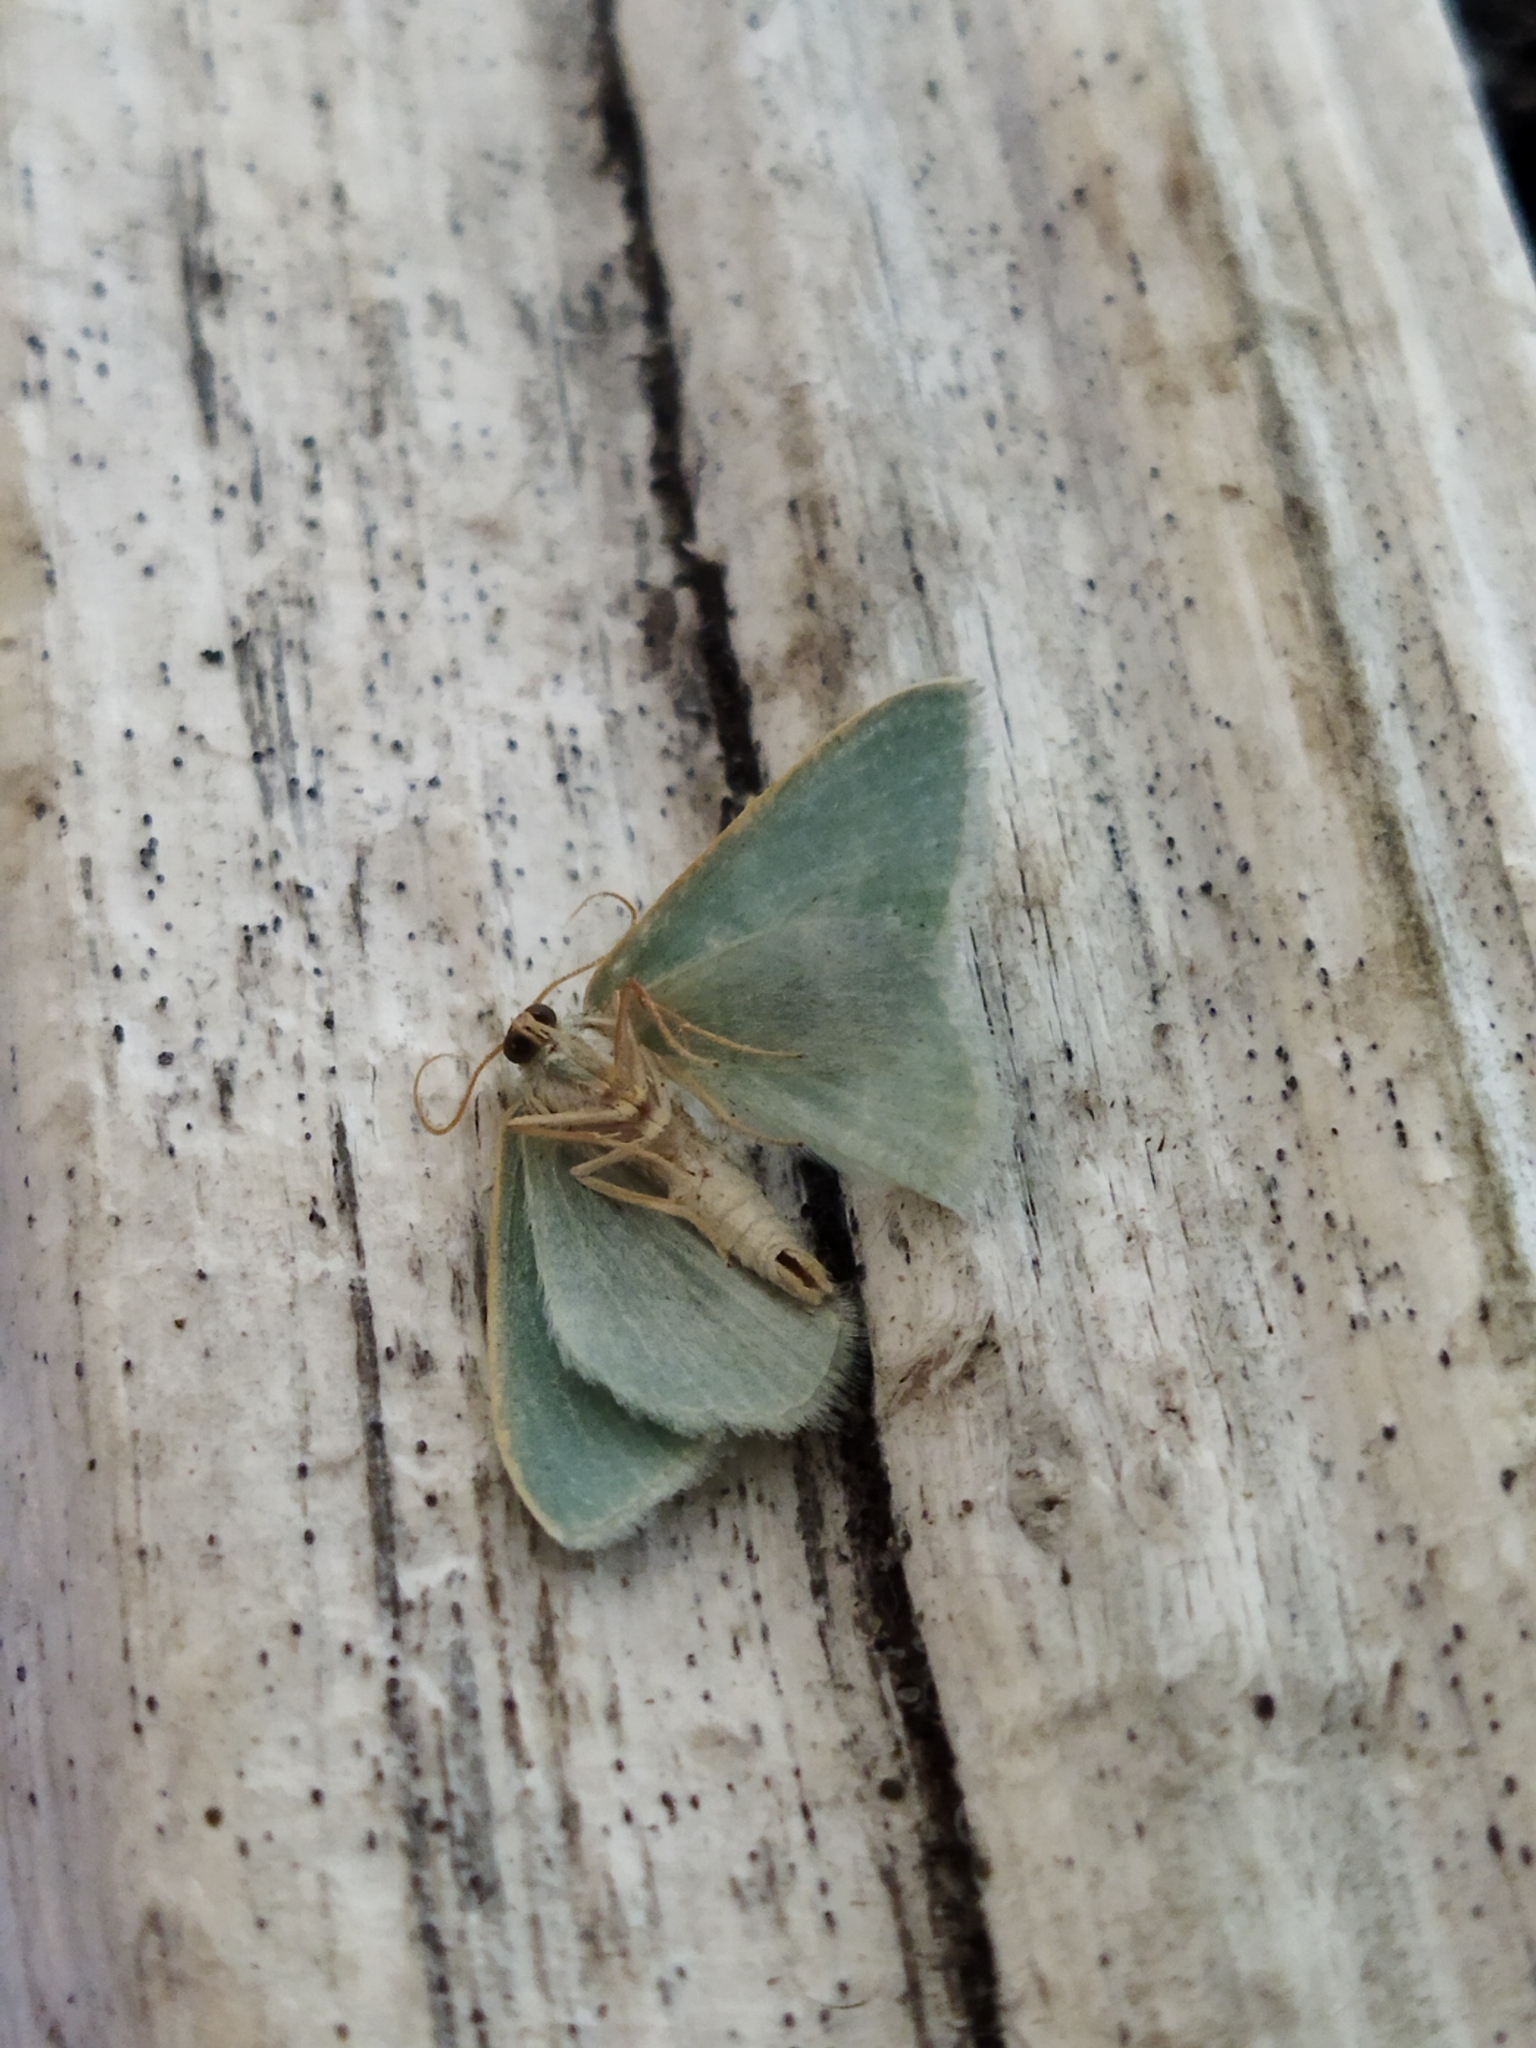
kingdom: Animalia
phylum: Arthropoda
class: Insecta
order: Lepidoptera
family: Geometridae
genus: Chlorissa
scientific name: Chlorissa etruscaria
